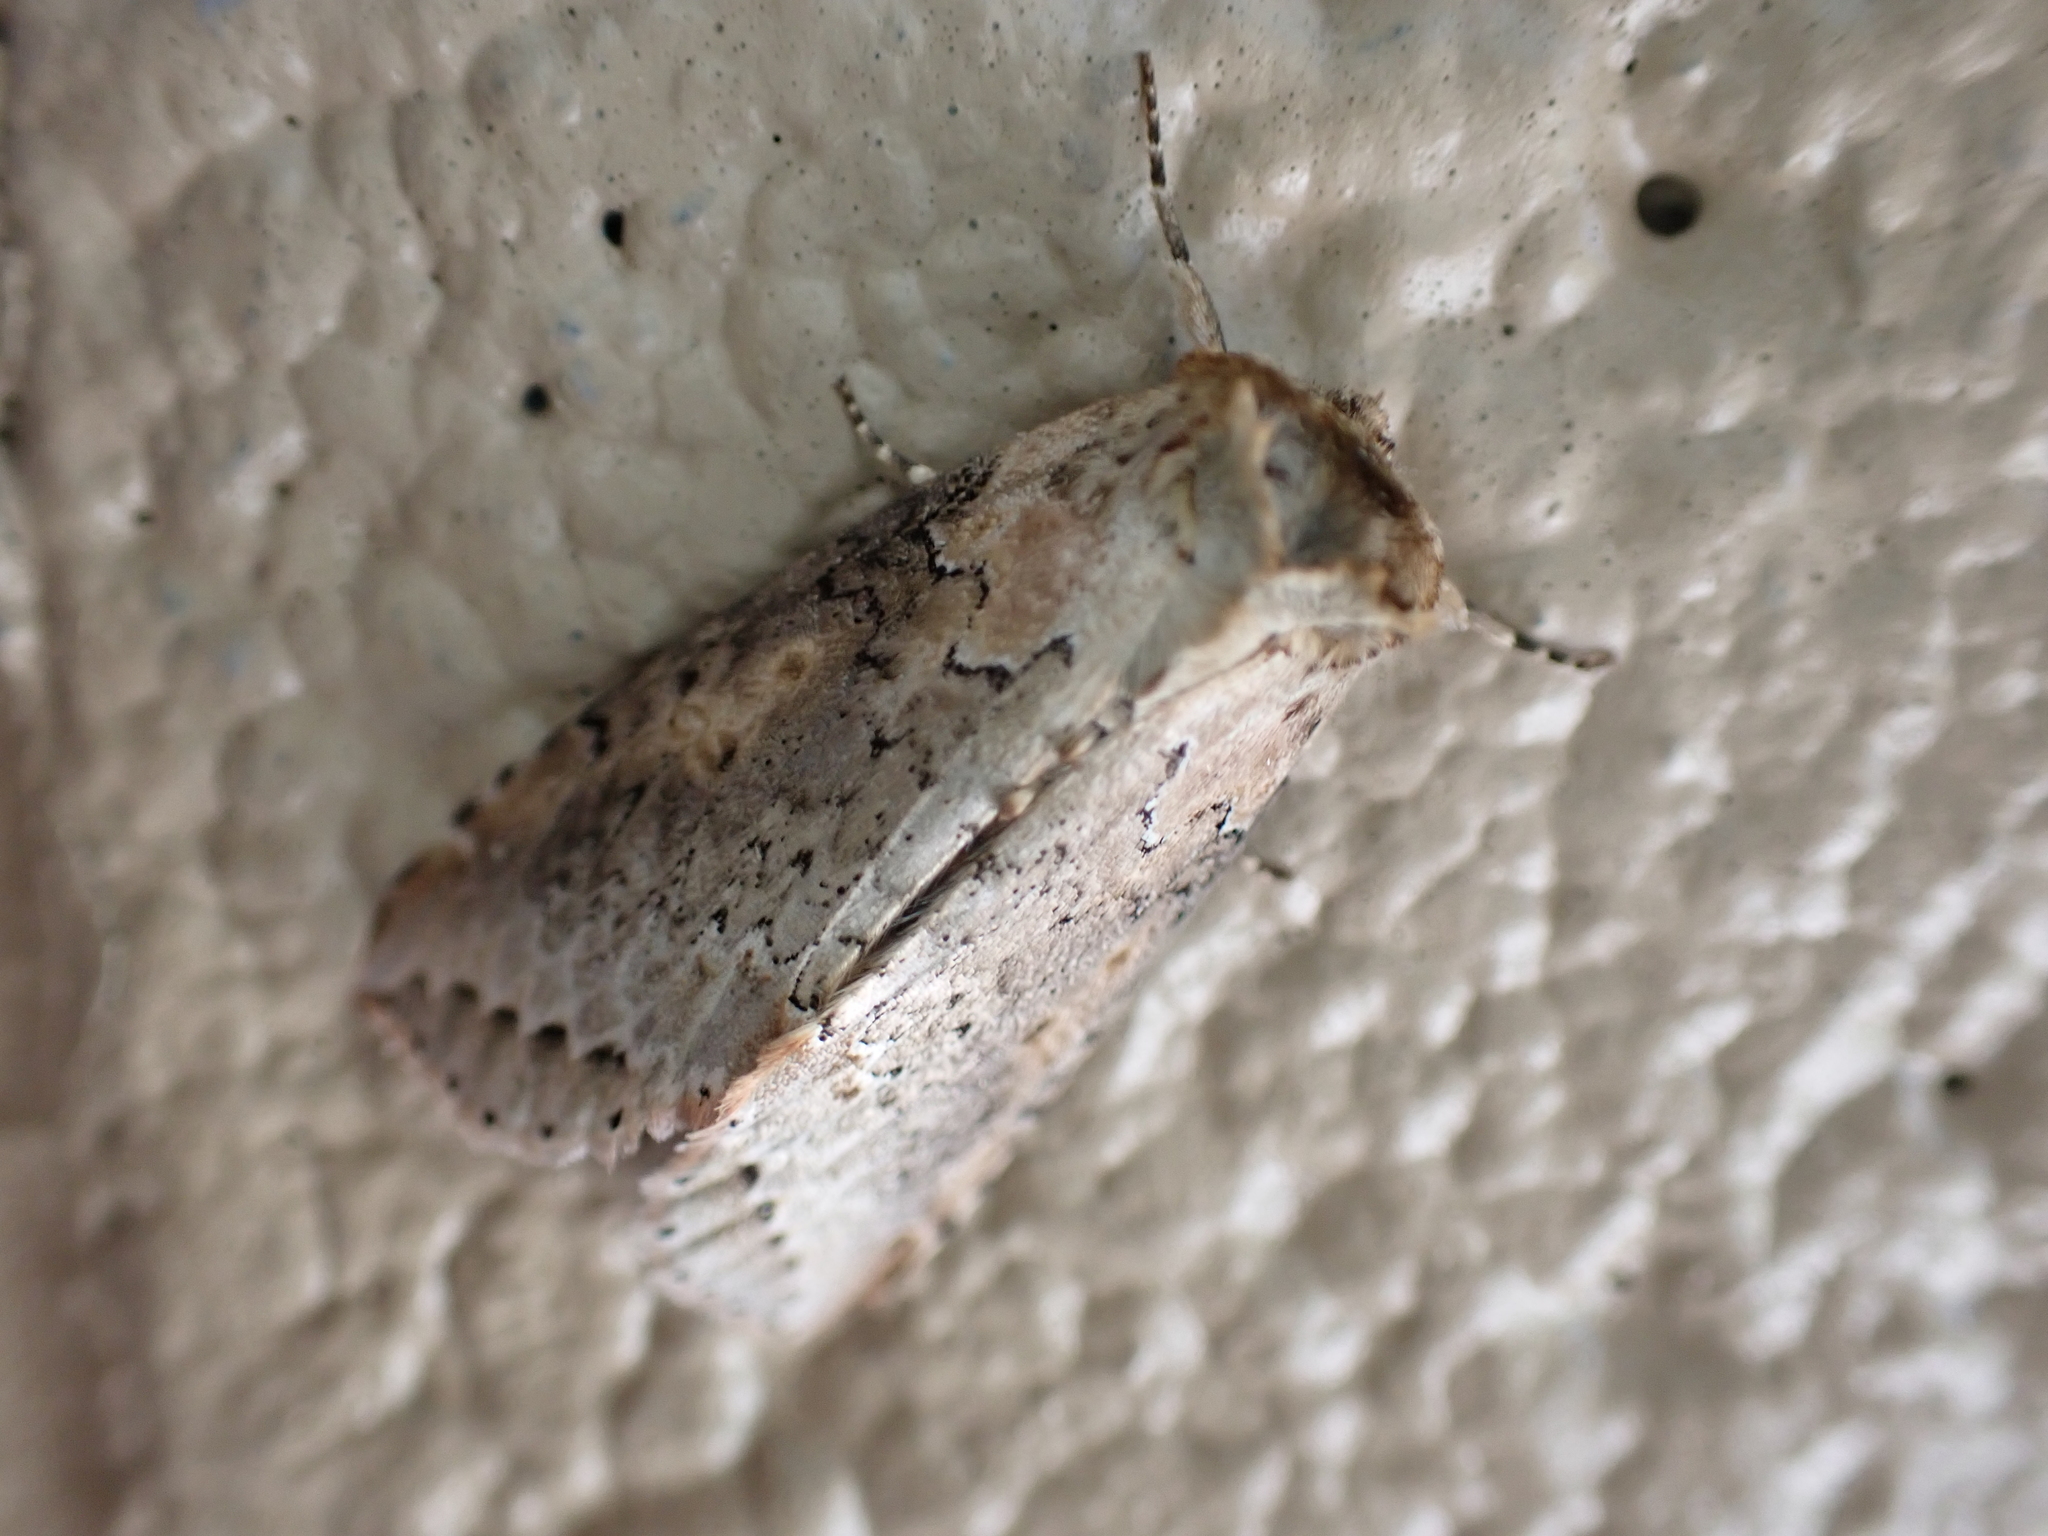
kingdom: Animalia
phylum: Arthropoda
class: Insecta
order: Lepidoptera
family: Drepanidae
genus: Pseudothyatira
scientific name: Pseudothyatira cymatophoroides
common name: Tufted thyatirid moth
